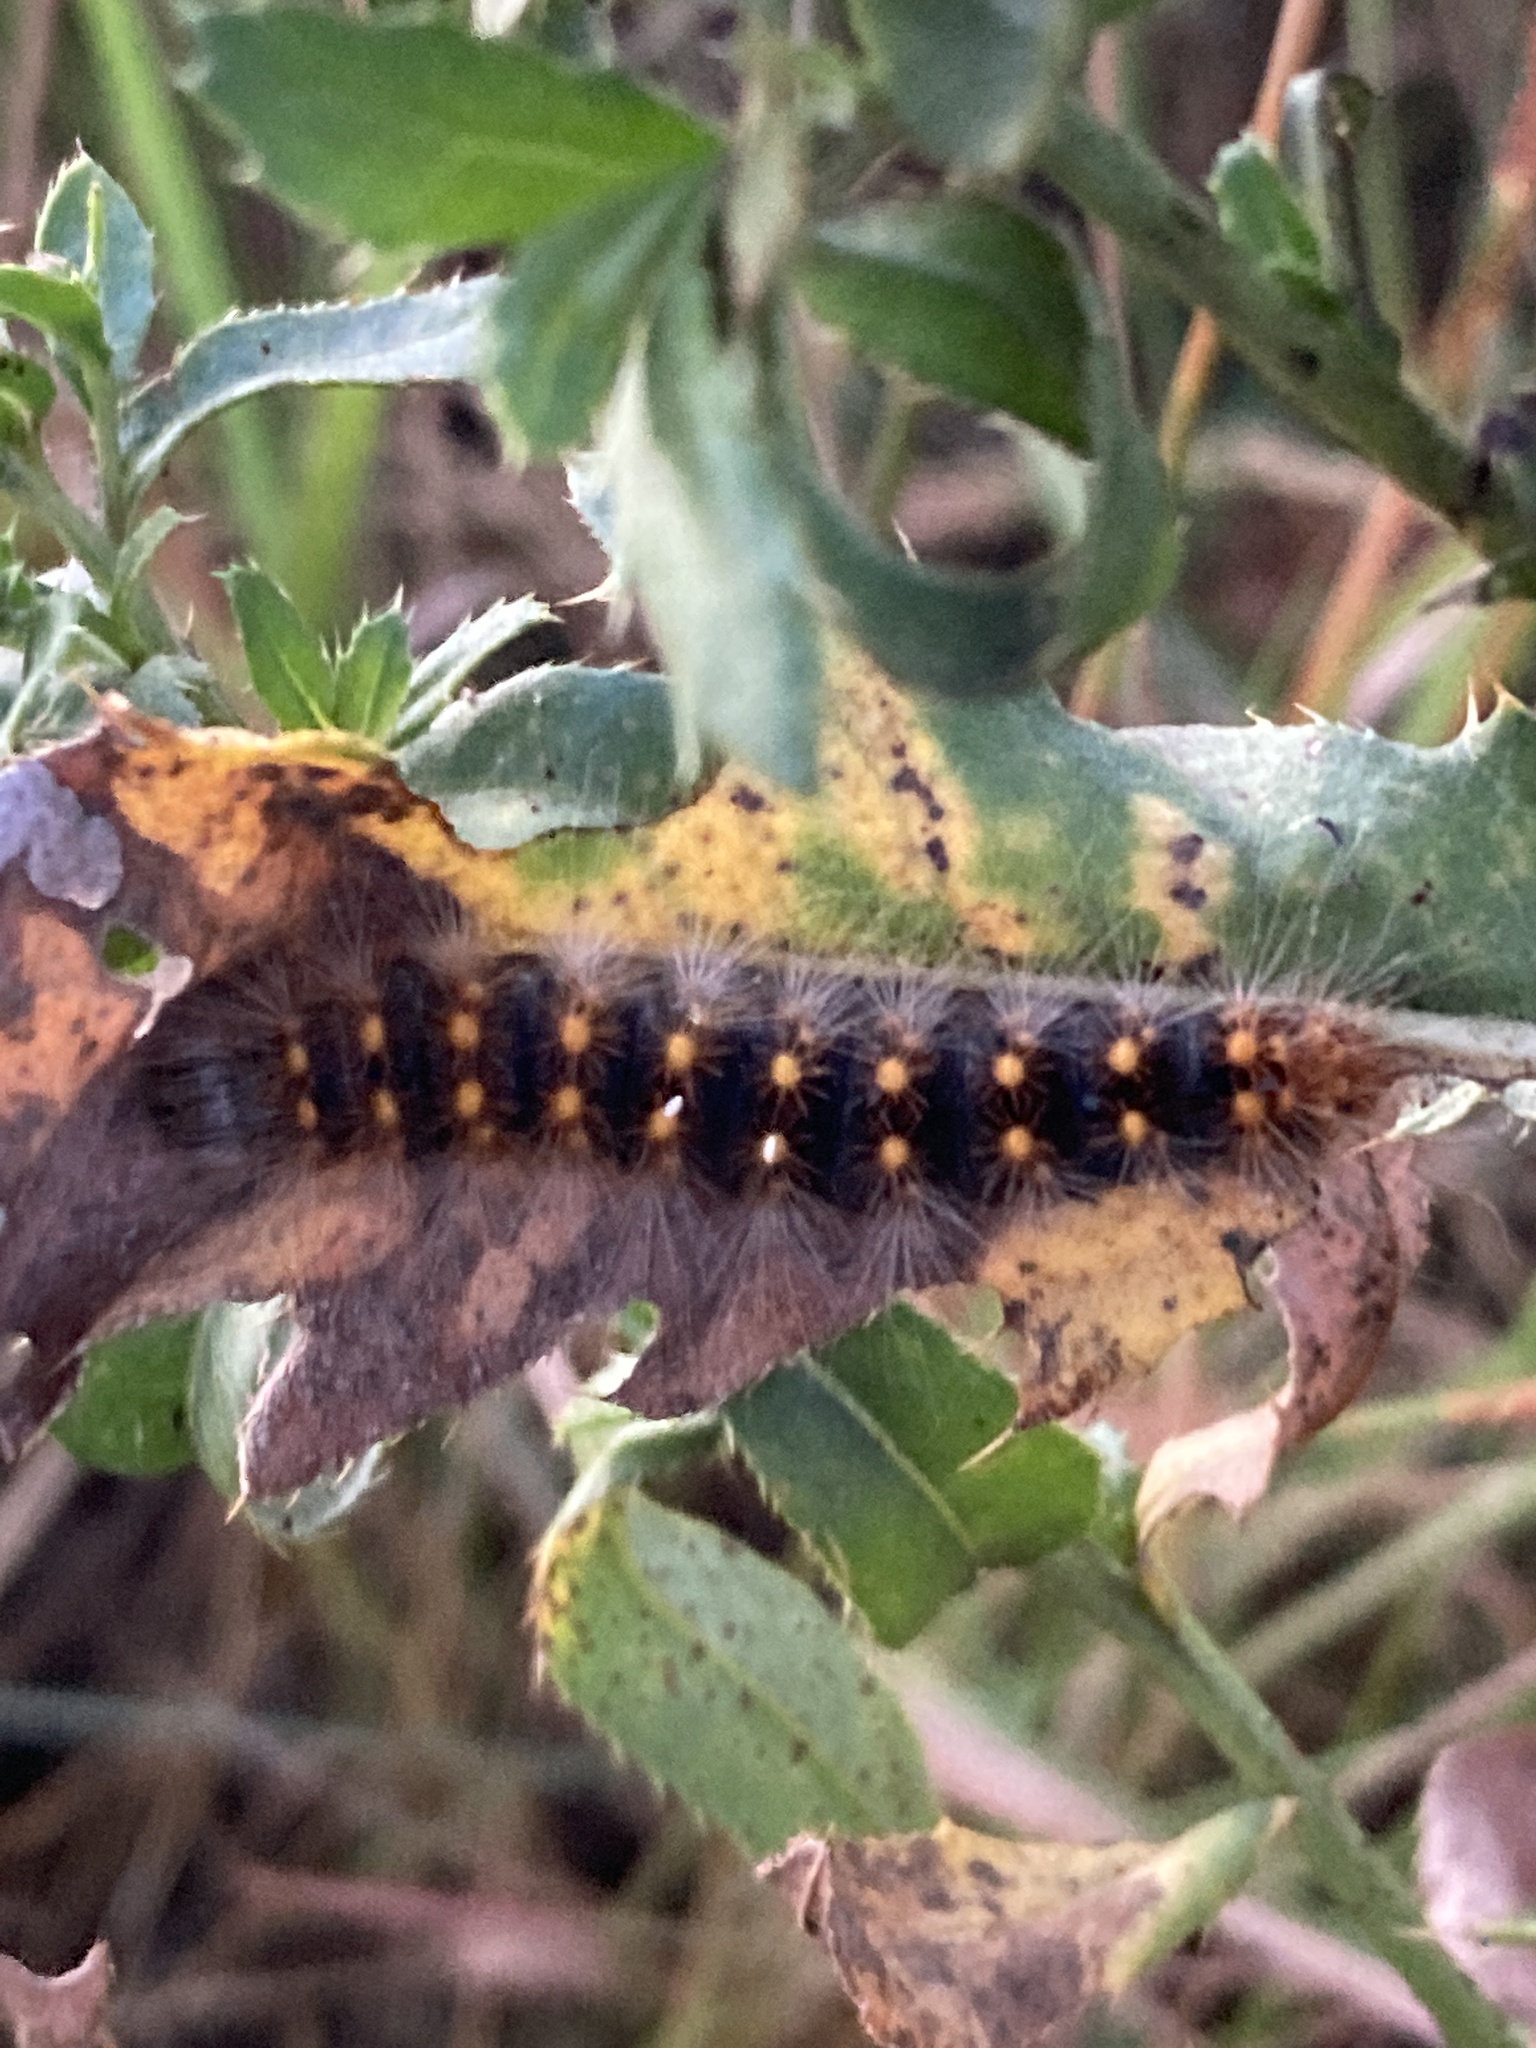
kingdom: Animalia
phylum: Arthropoda
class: Insecta
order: Lepidoptera
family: Noctuidae
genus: Acronicta
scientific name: Acronicta auricoma
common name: Scarce dagger
